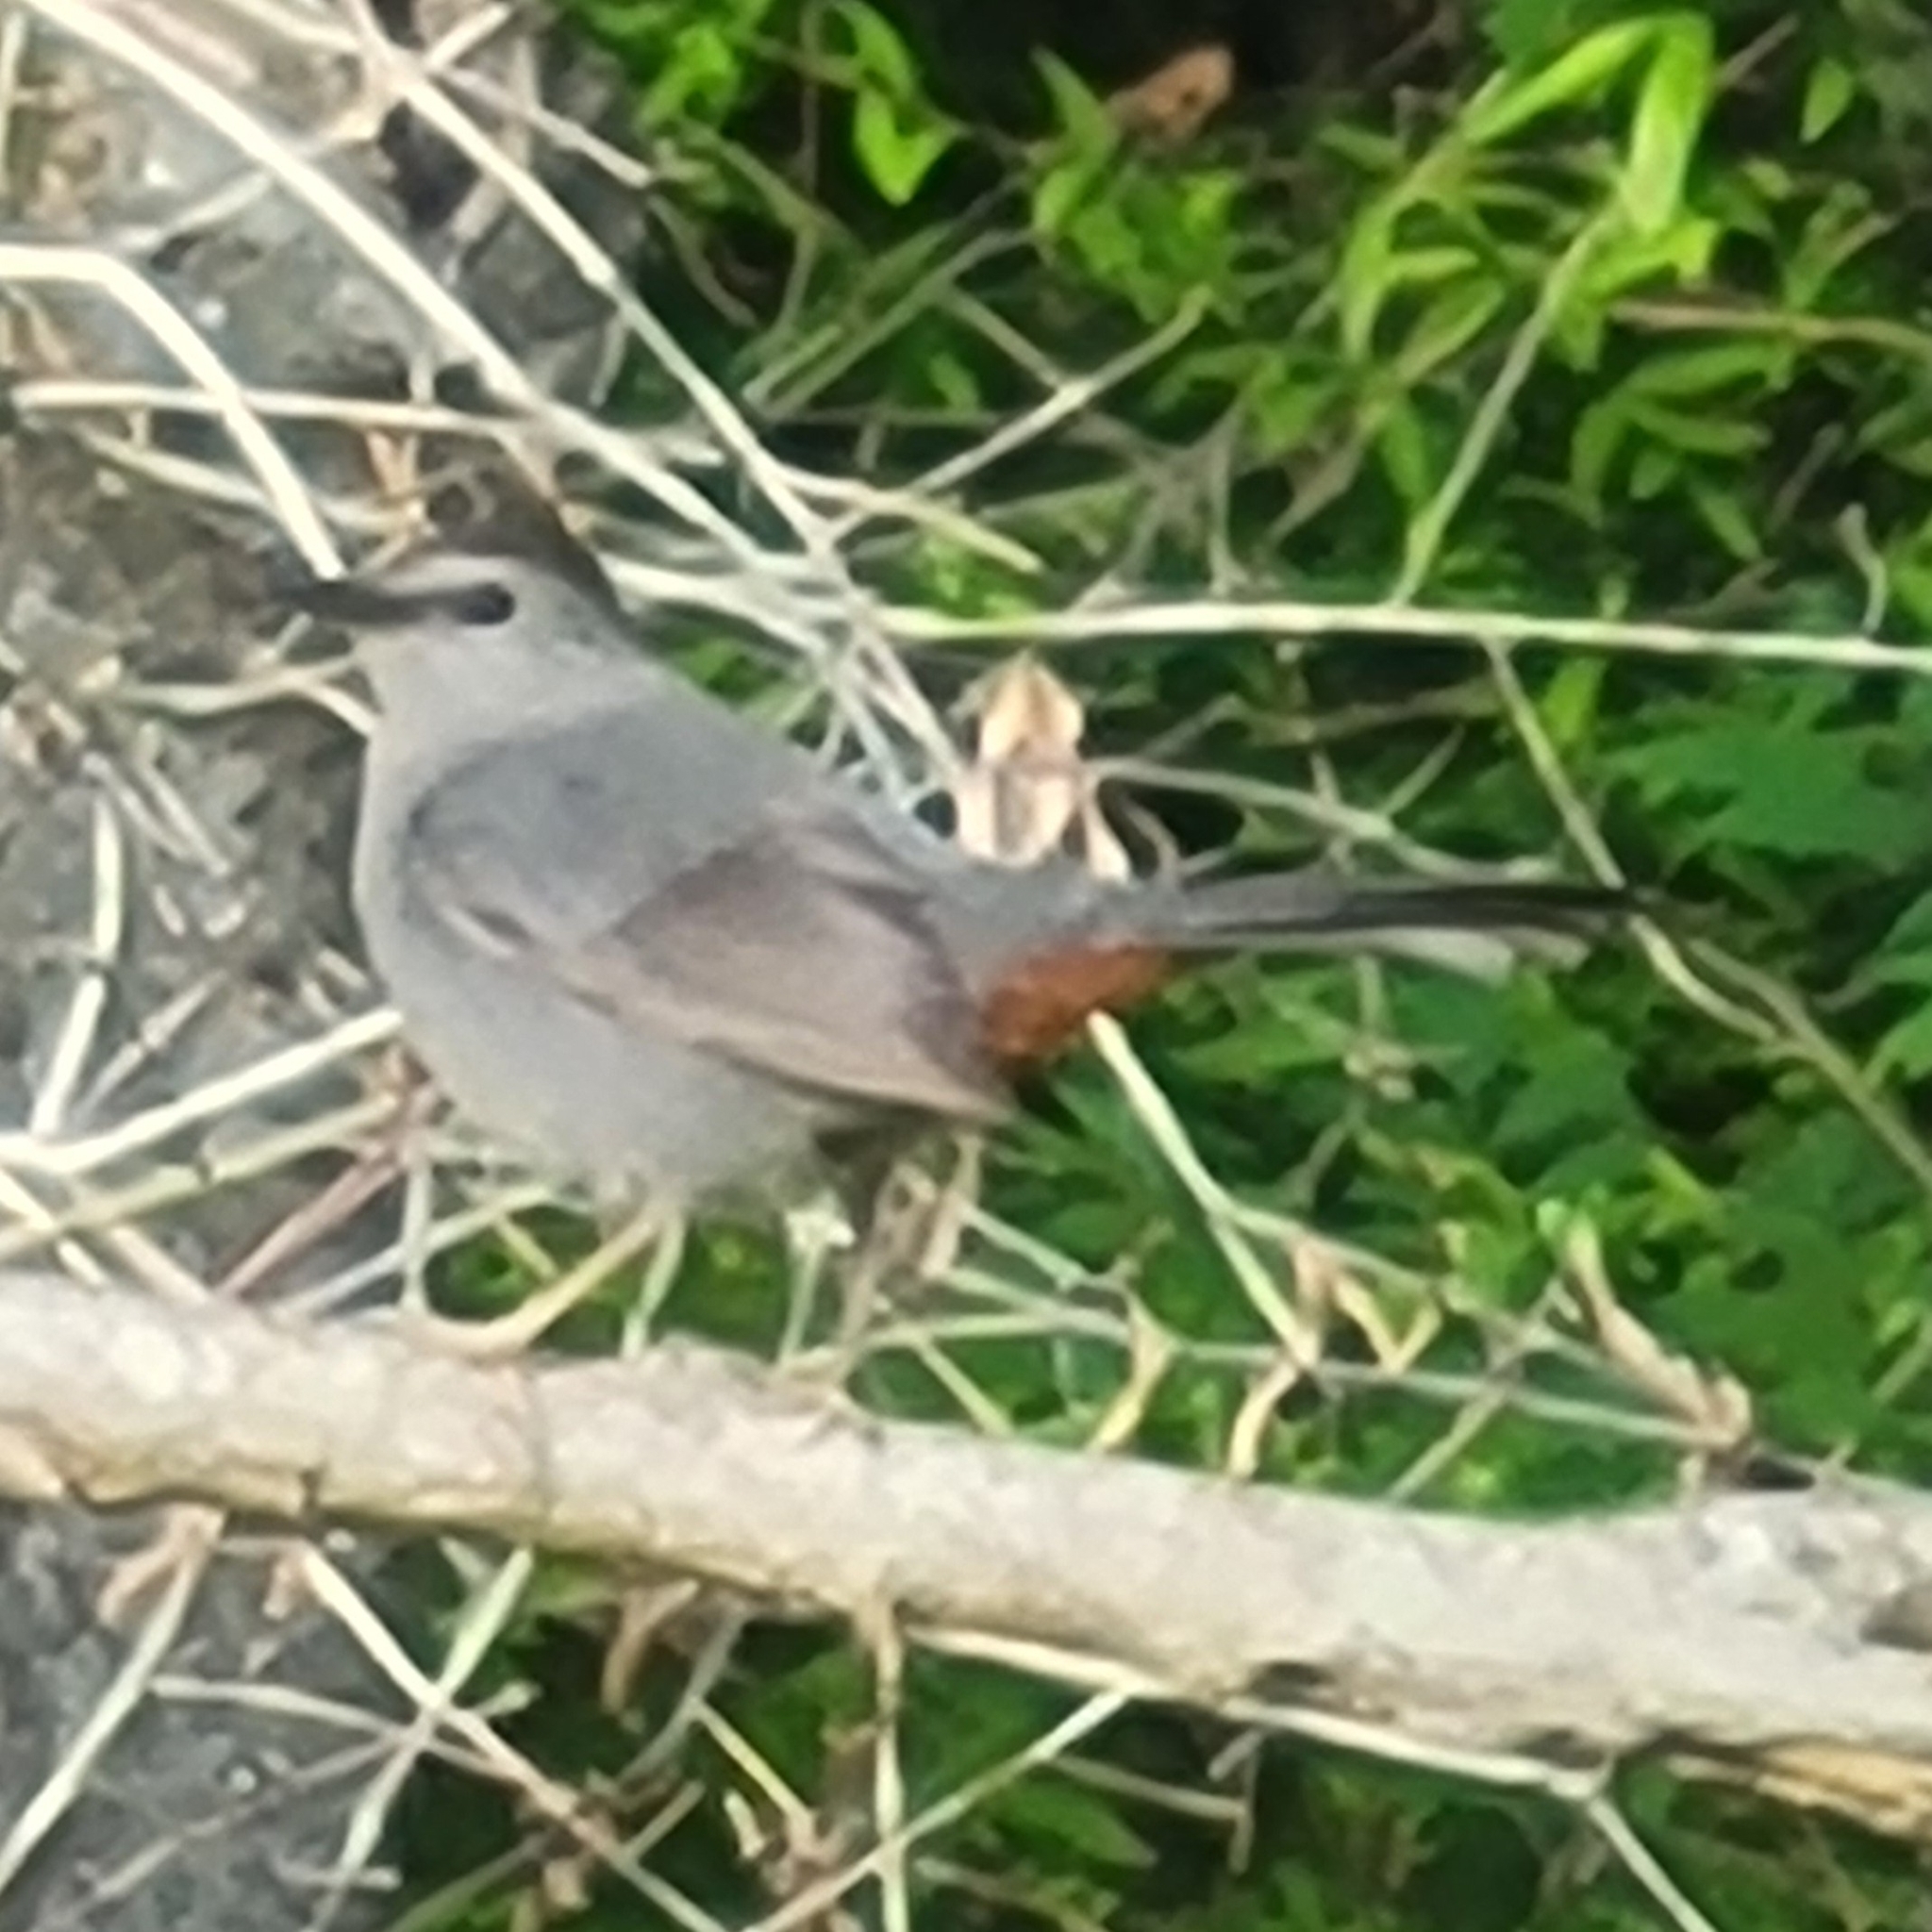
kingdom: Animalia
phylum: Chordata
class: Aves
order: Passeriformes
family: Mimidae
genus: Dumetella
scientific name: Dumetella carolinensis
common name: Gray catbird
